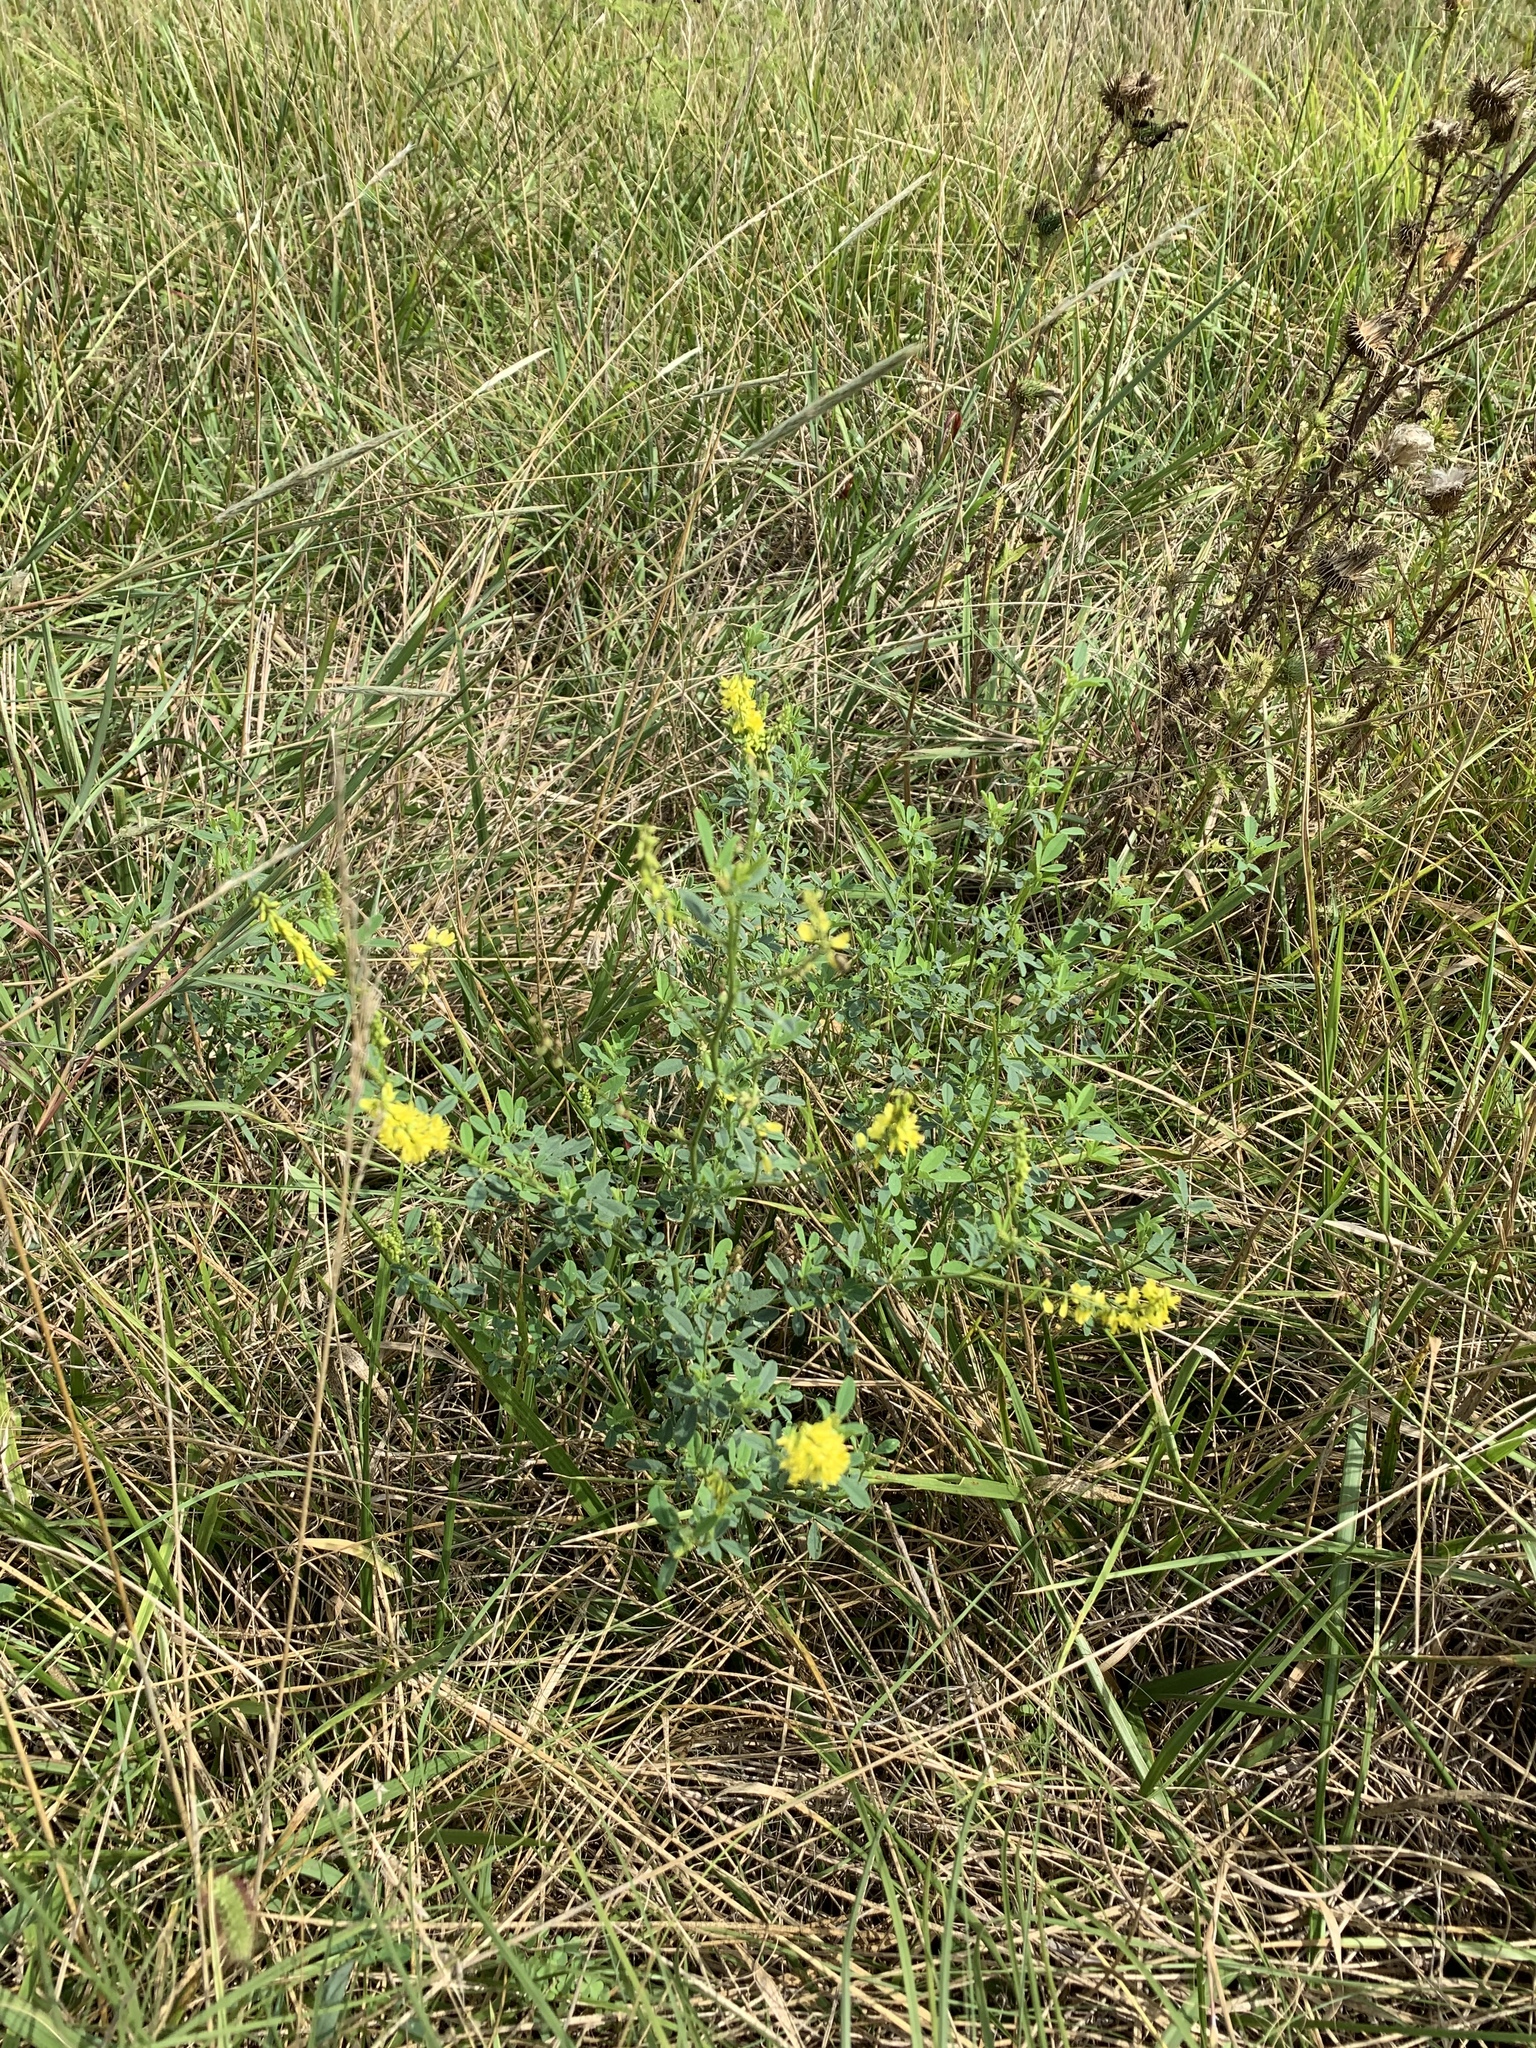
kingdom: Plantae
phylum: Tracheophyta
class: Magnoliopsida
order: Fabales
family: Fabaceae
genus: Melilotus
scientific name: Melilotus officinalis
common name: Sweetclover
